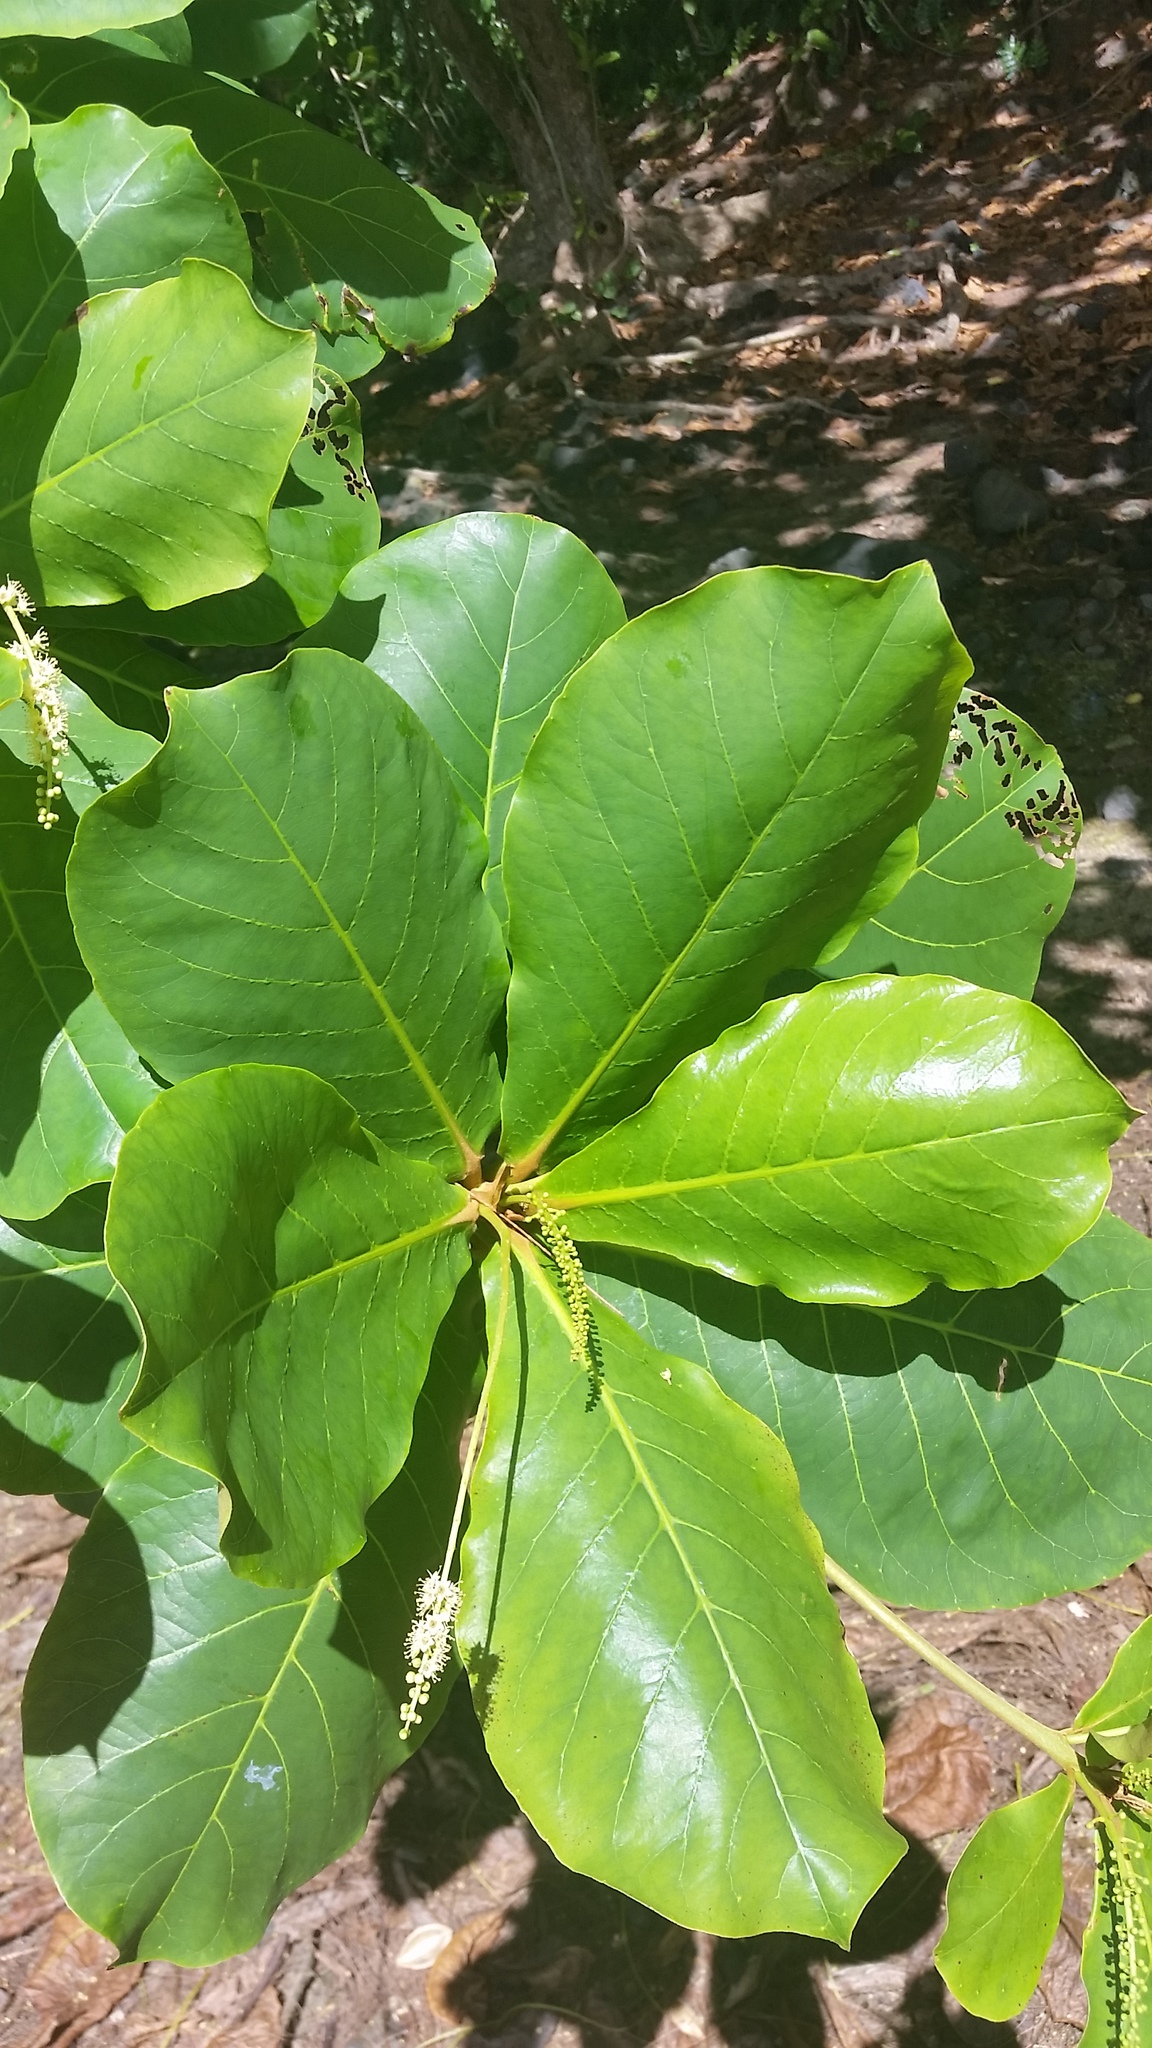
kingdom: Plantae
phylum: Tracheophyta
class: Magnoliopsida
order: Myrtales
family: Combretaceae
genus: Terminalia
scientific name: Terminalia catappa
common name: Tropical almond
